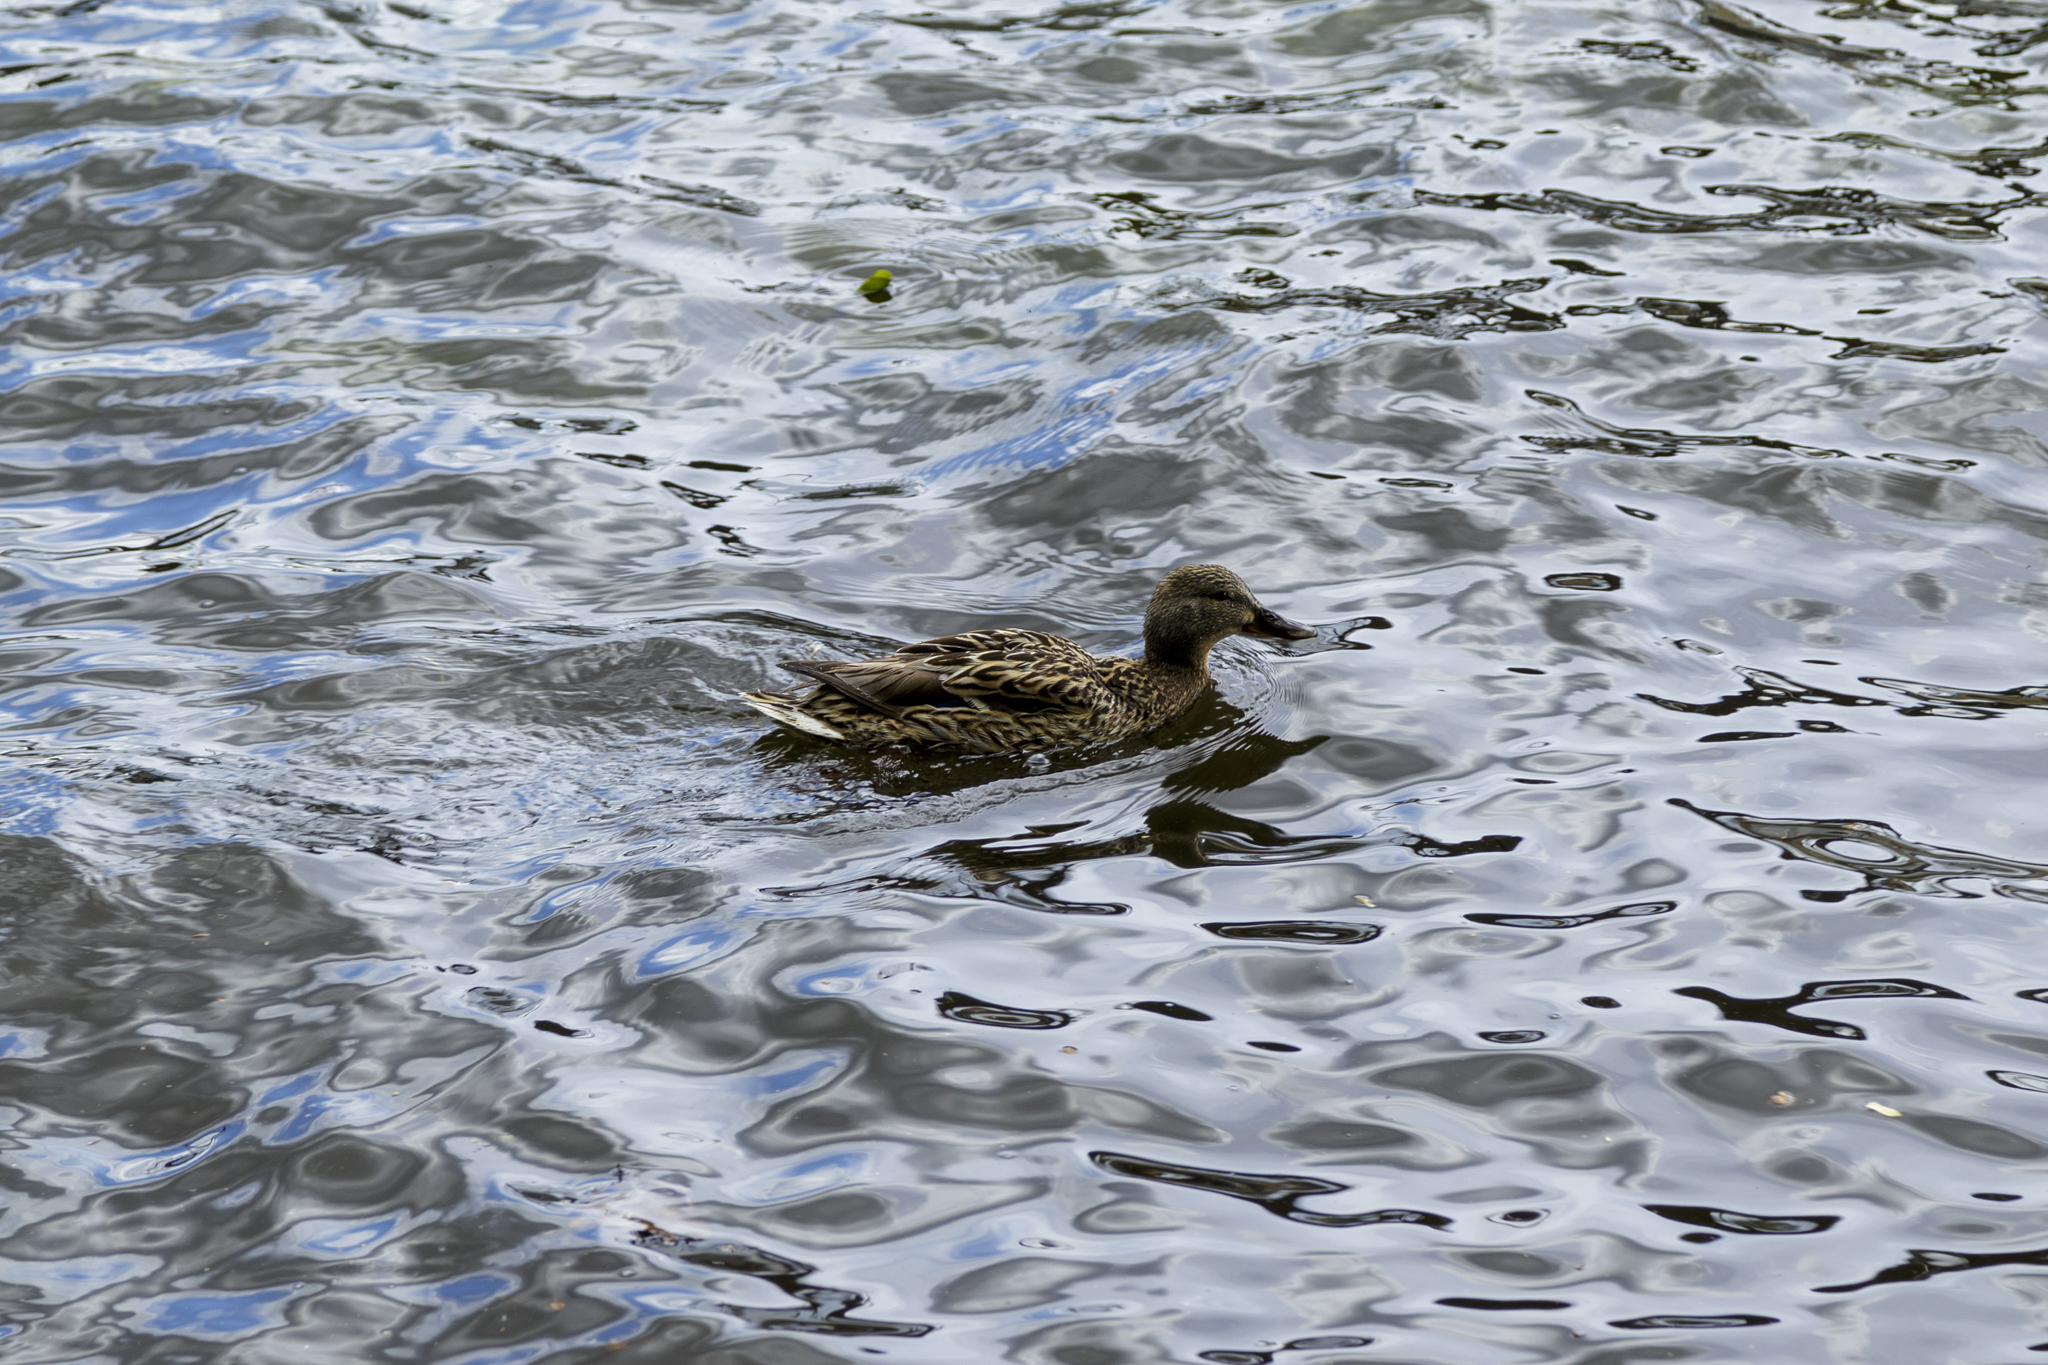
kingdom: Animalia
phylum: Chordata
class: Aves
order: Anseriformes
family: Anatidae
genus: Anas
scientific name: Anas platyrhynchos
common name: Mallard
